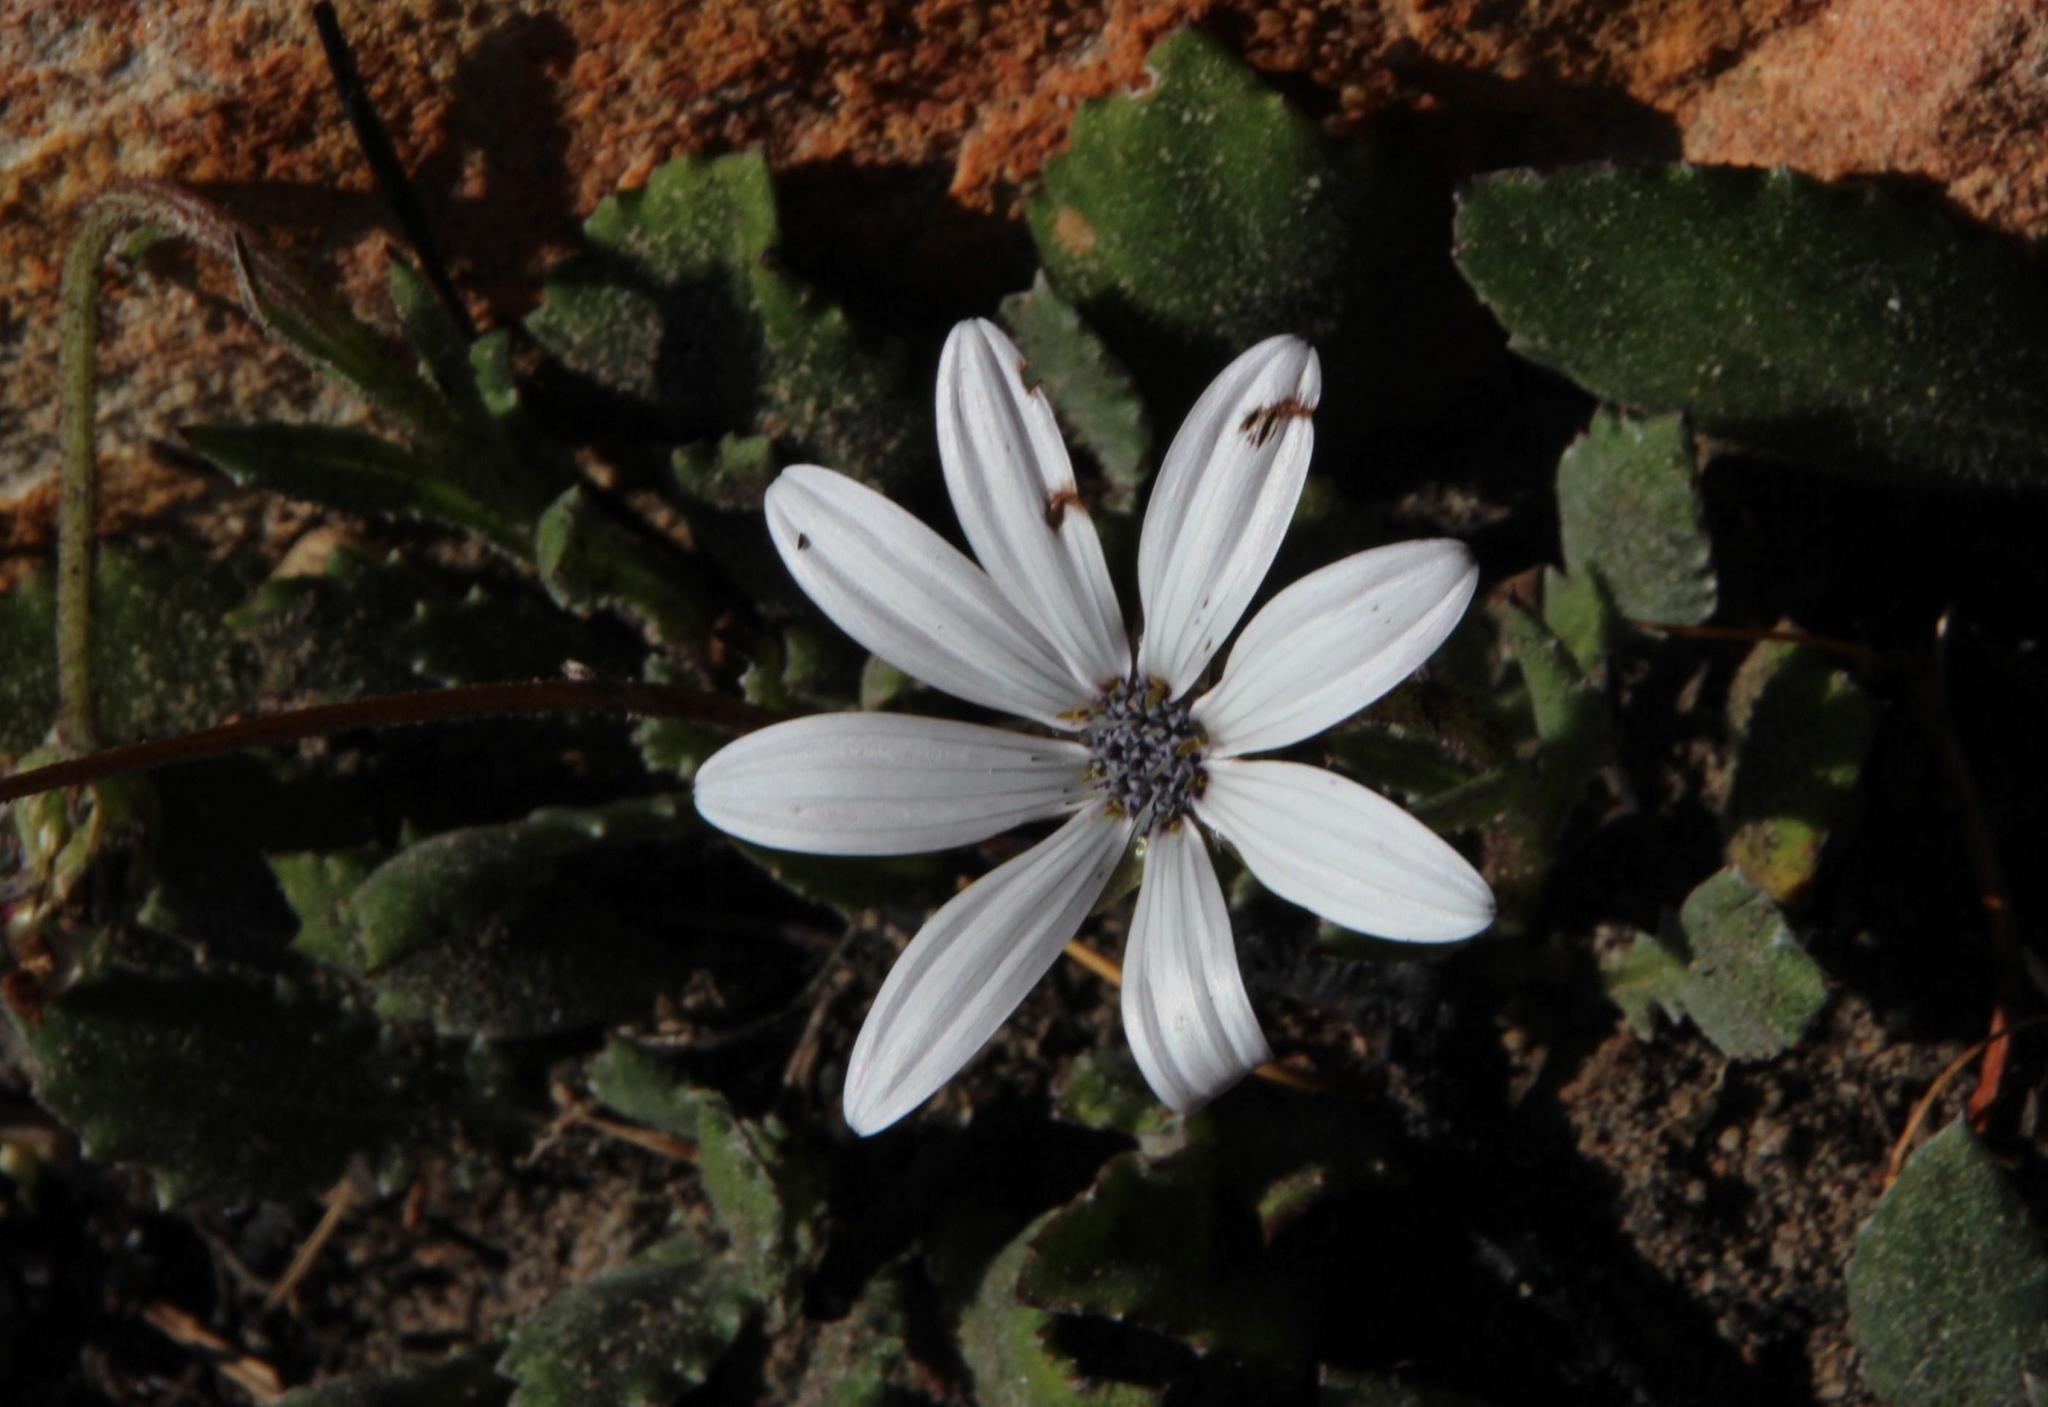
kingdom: Plantae
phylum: Tracheophyta
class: Magnoliopsida
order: Asterales
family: Asteraceae
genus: Dimorphotheca
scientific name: Dimorphotheca nudicaulis
